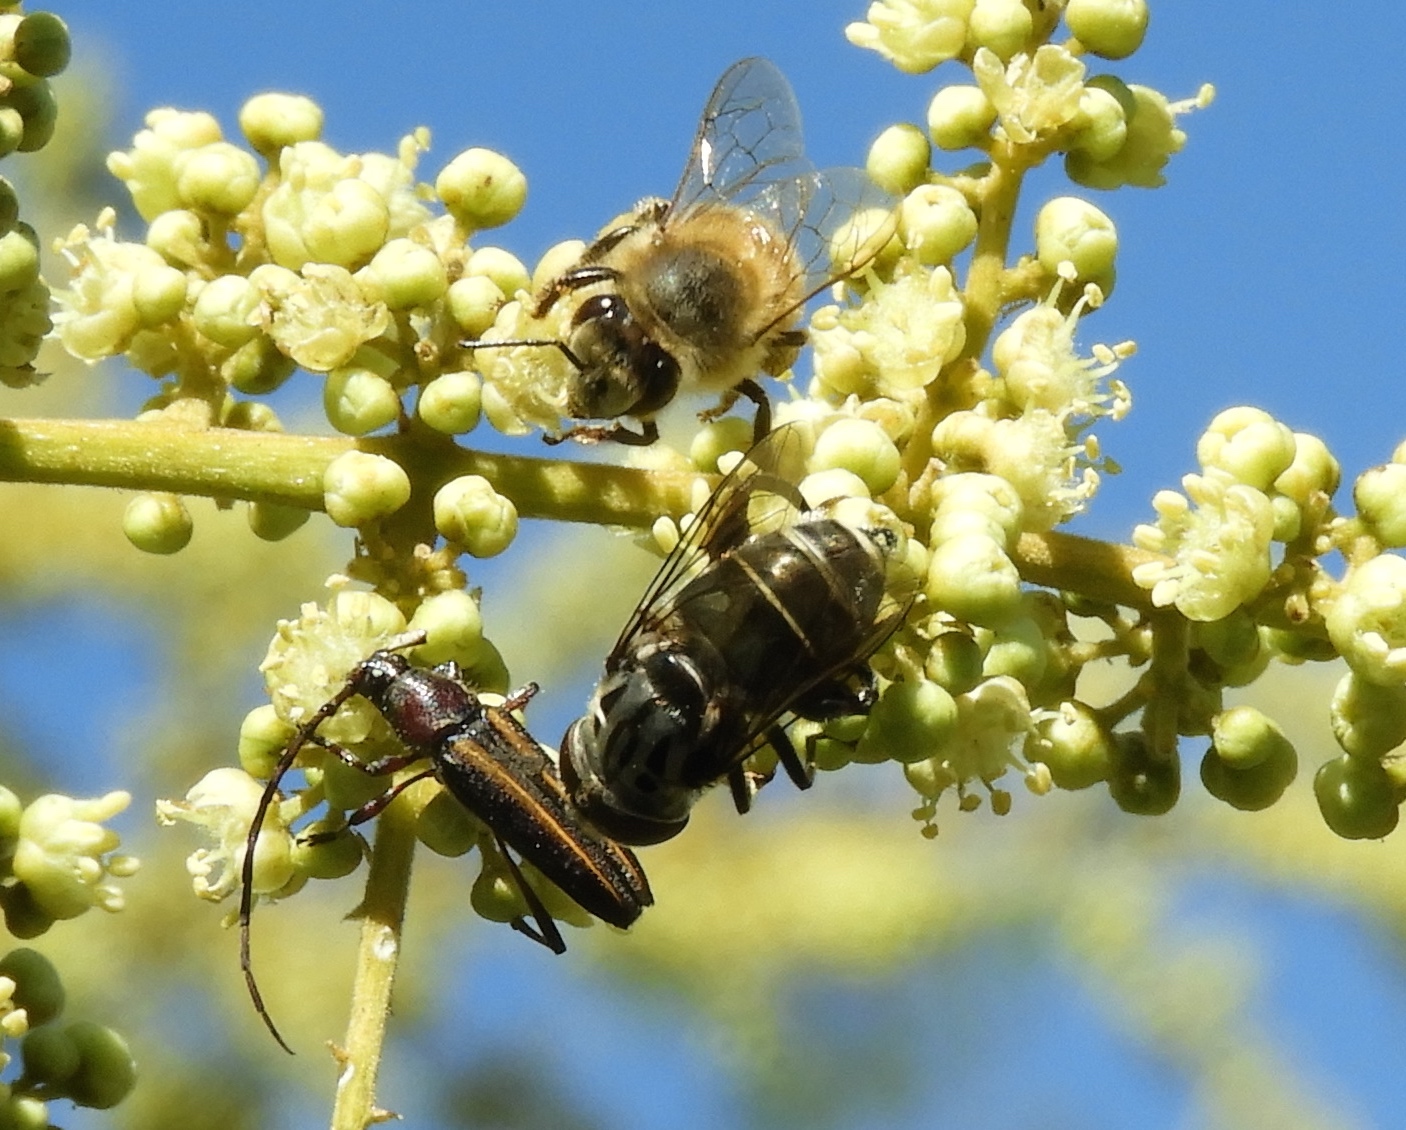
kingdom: Animalia
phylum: Arthropoda
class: Insecta
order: Hymenoptera
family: Apidae
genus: Apis
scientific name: Apis mellifera
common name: Honey bee
